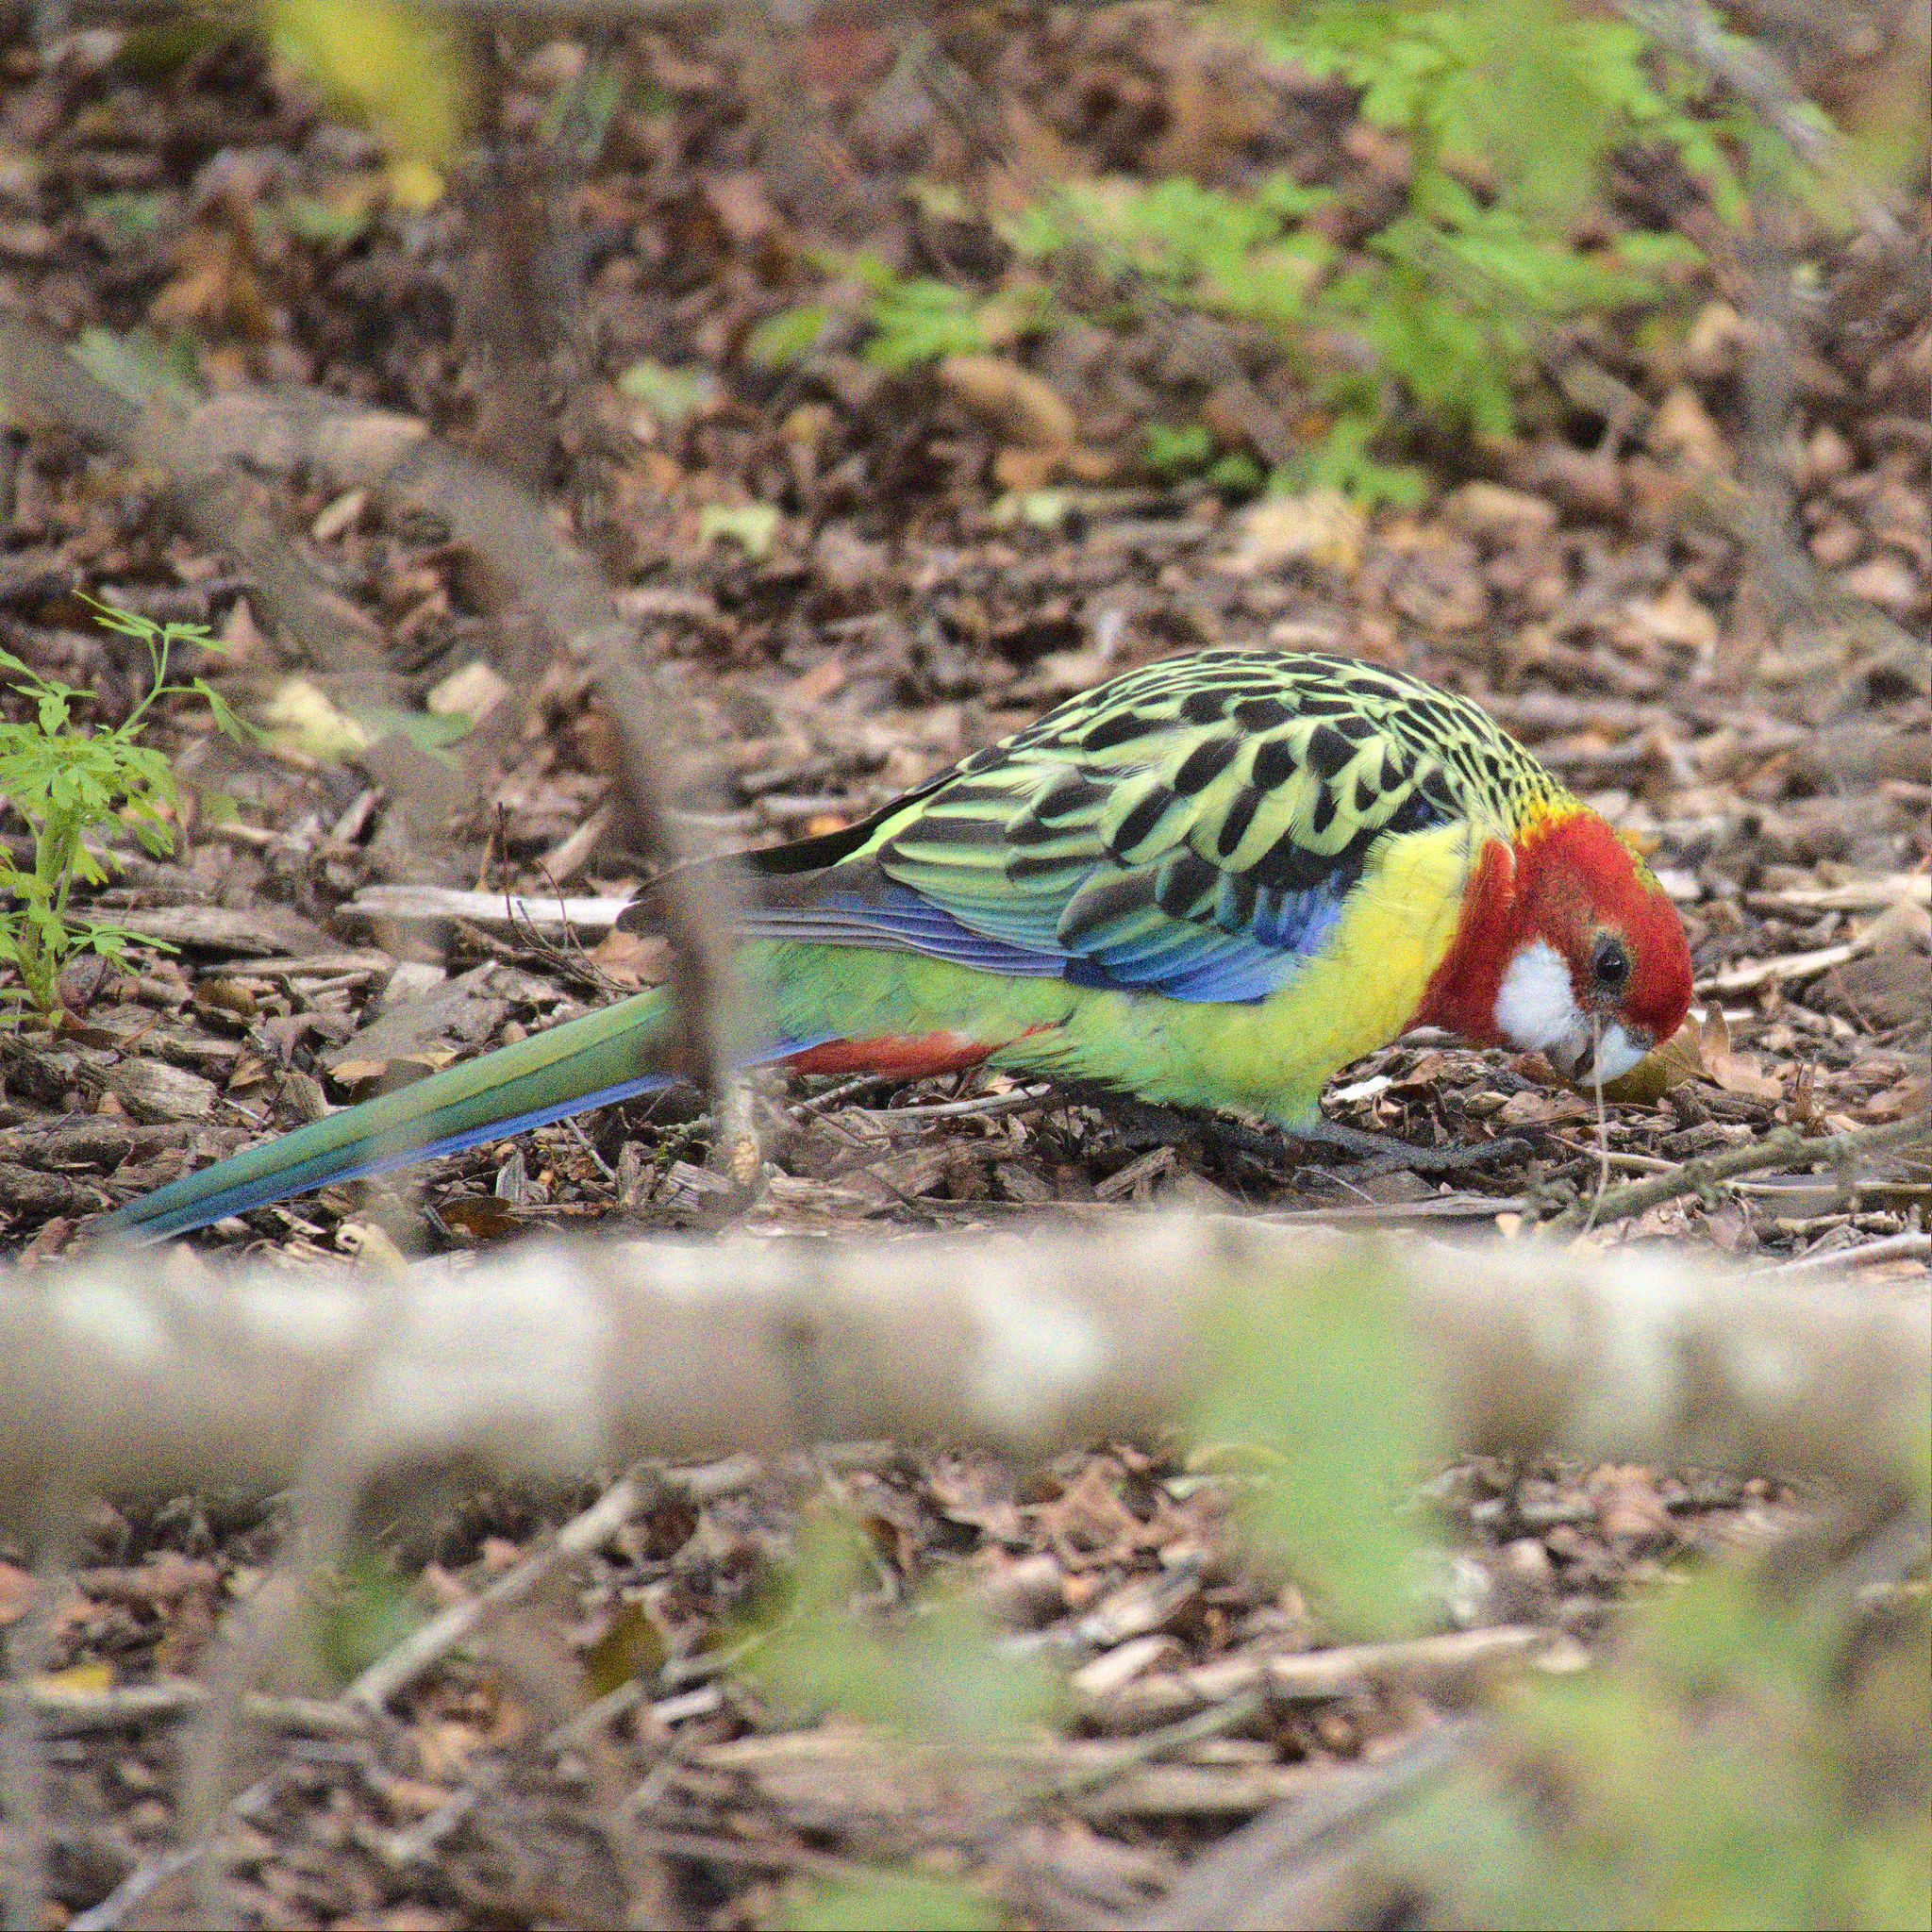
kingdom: Animalia
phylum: Chordata
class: Aves
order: Psittaciformes
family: Psittacidae
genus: Platycercus
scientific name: Platycercus eximius
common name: Eastern rosella
